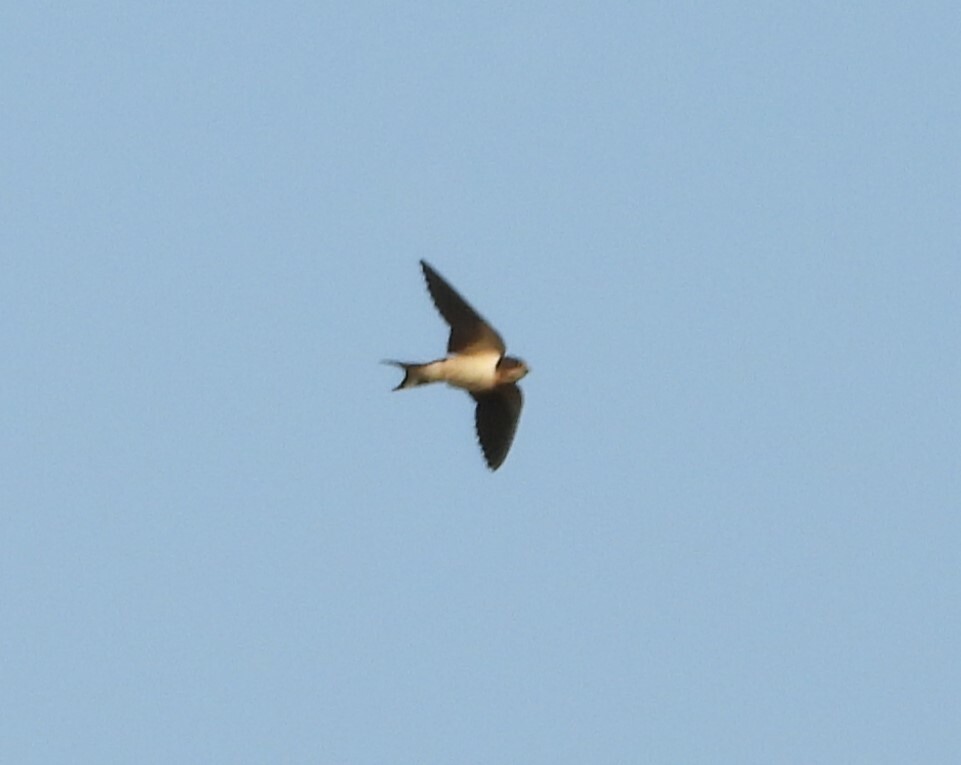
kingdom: Animalia
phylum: Chordata
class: Aves
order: Passeriformes
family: Hirundinidae
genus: Hirundo
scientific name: Hirundo rustica
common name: Barn swallow
